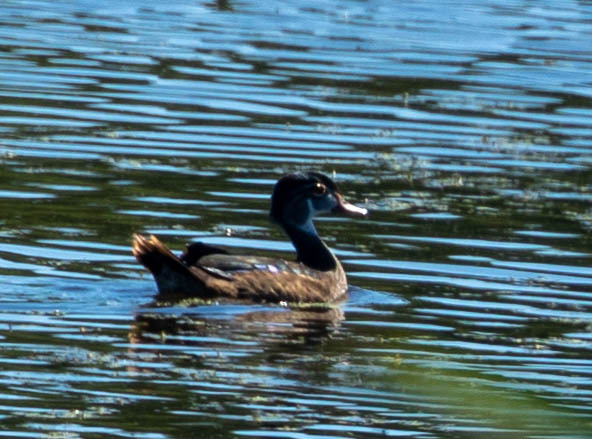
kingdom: Animalia
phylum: Chordata
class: Aves
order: Anseriformes
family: Anatidae
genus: Aix
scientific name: Aix sponsa
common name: Wood duck
